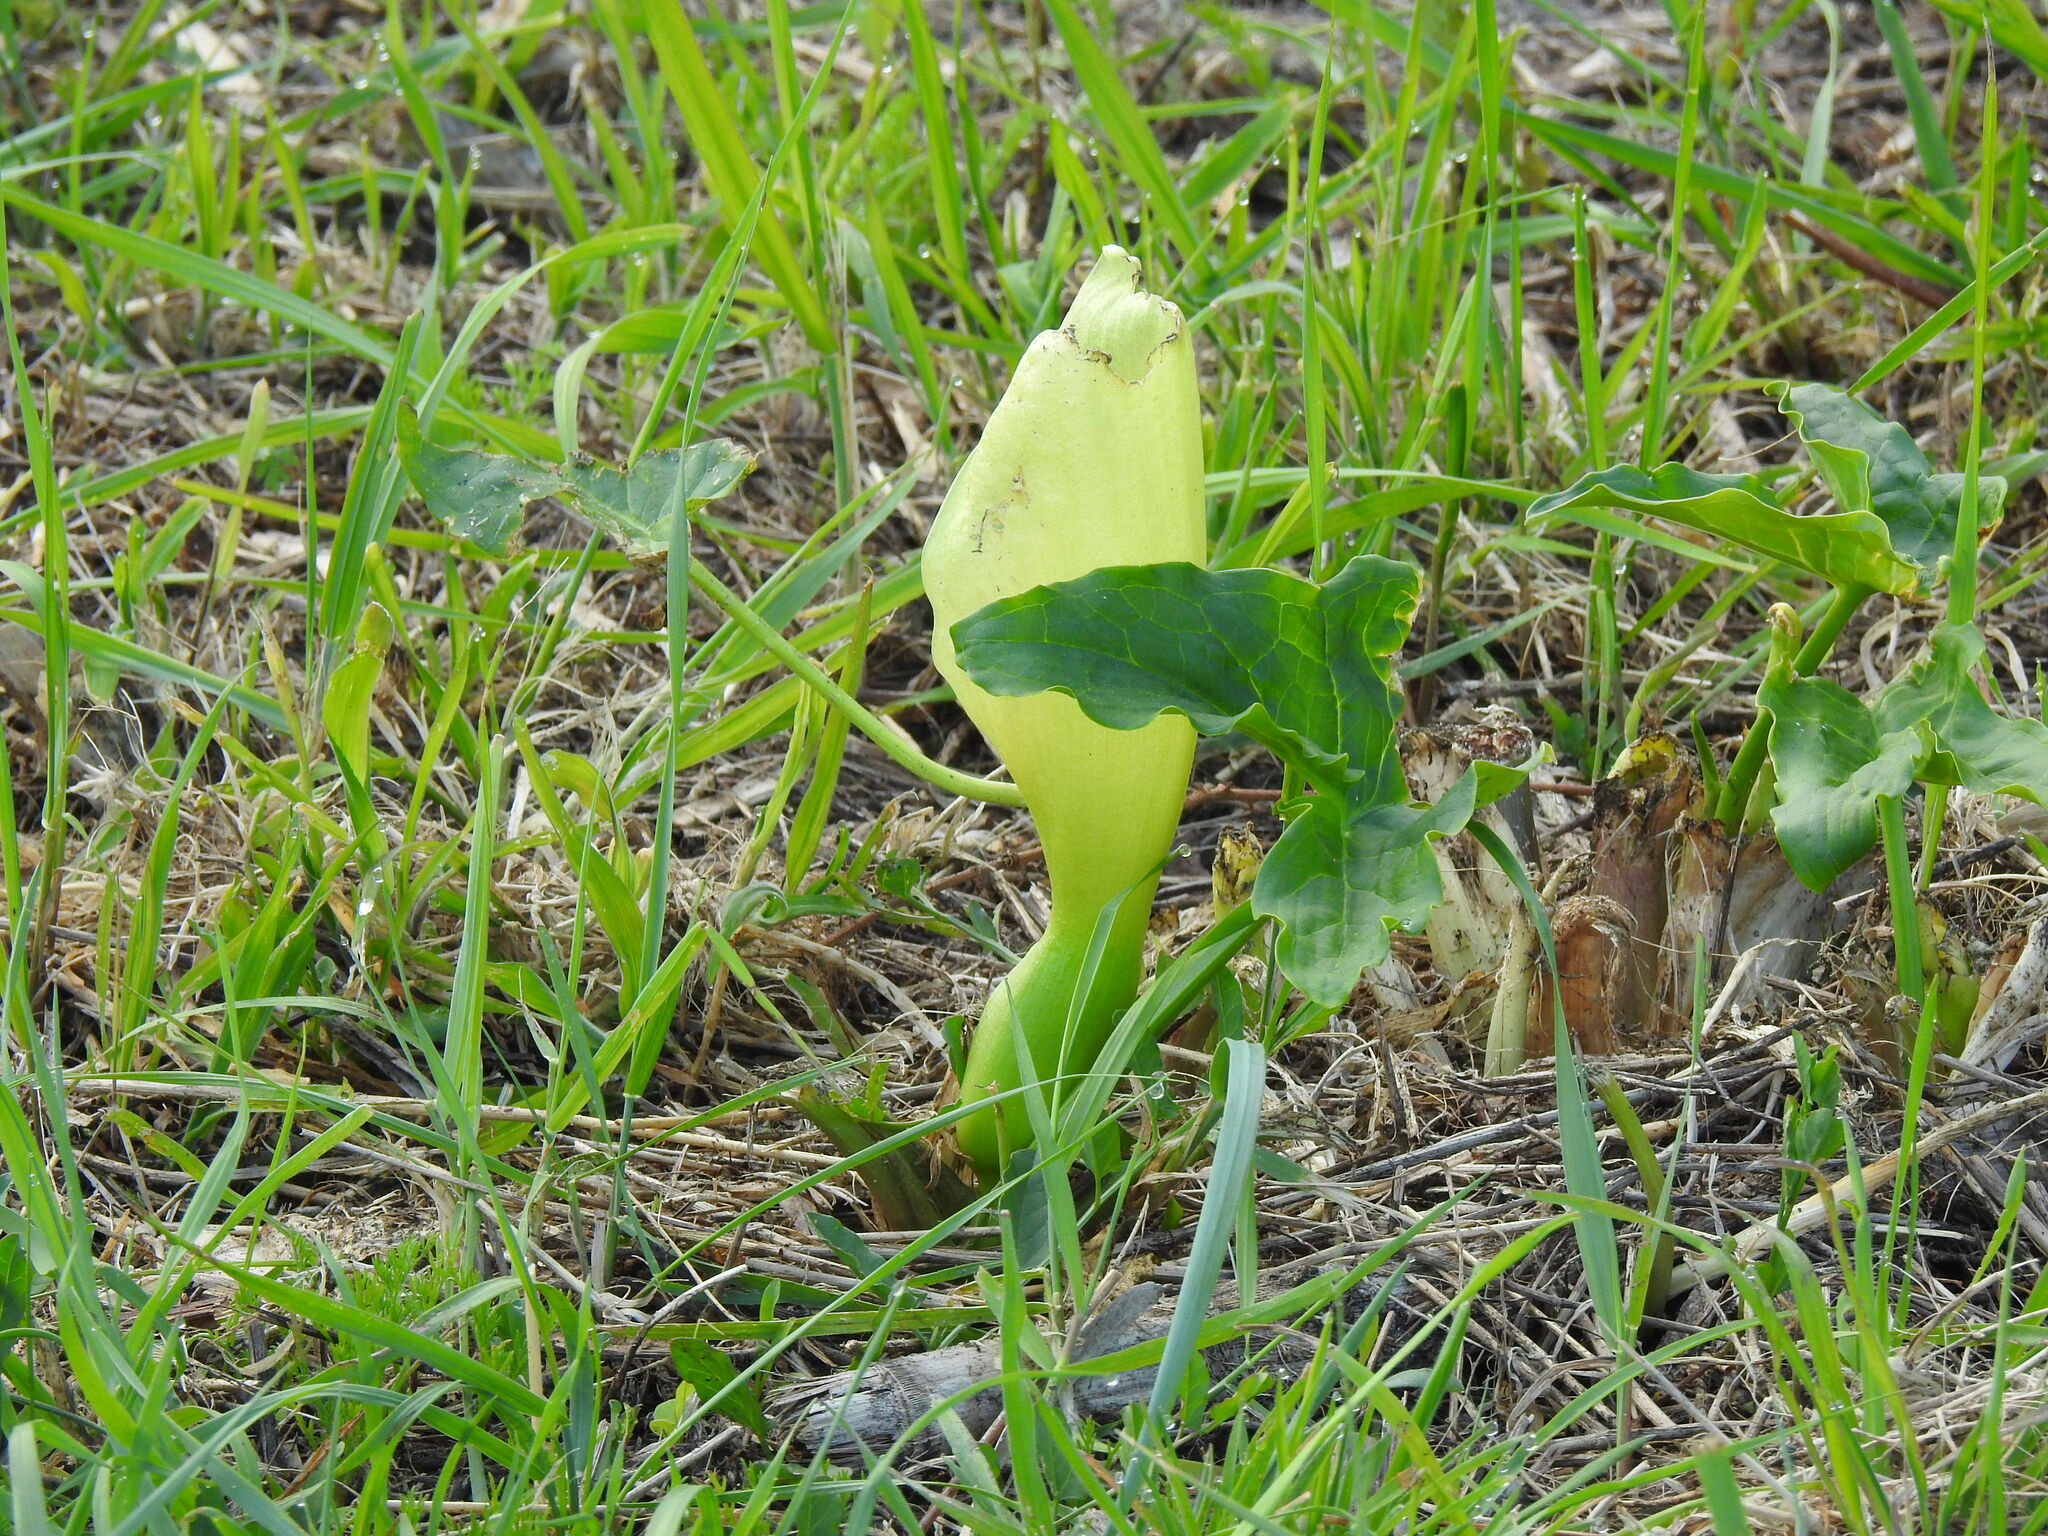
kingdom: Plantae
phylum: Tracheophyta
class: Liliopsida
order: Alismatales
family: Araceae
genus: Arum
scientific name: Arum italicum
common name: Italian lords-and-ladies
